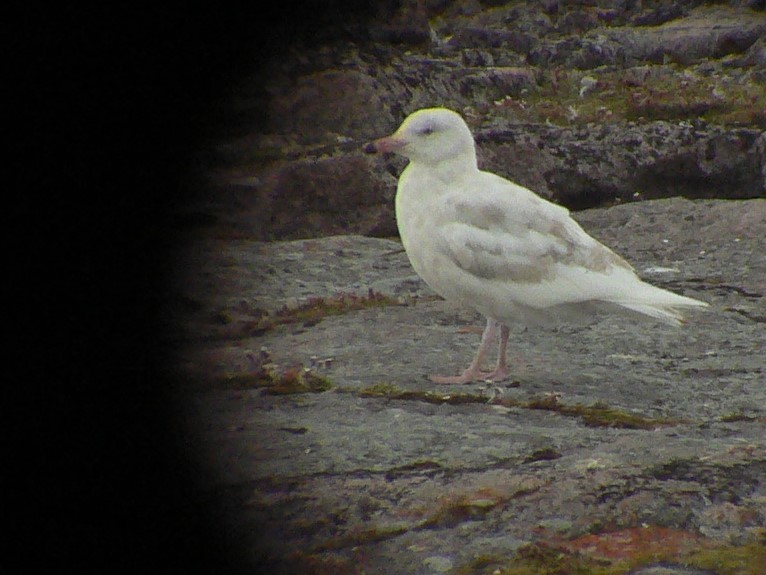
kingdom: Animalia
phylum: Chordata
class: Aves
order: Charadriiformes
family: Laridae
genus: Larus
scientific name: Larus hyperboreus
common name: Glaucous gull
